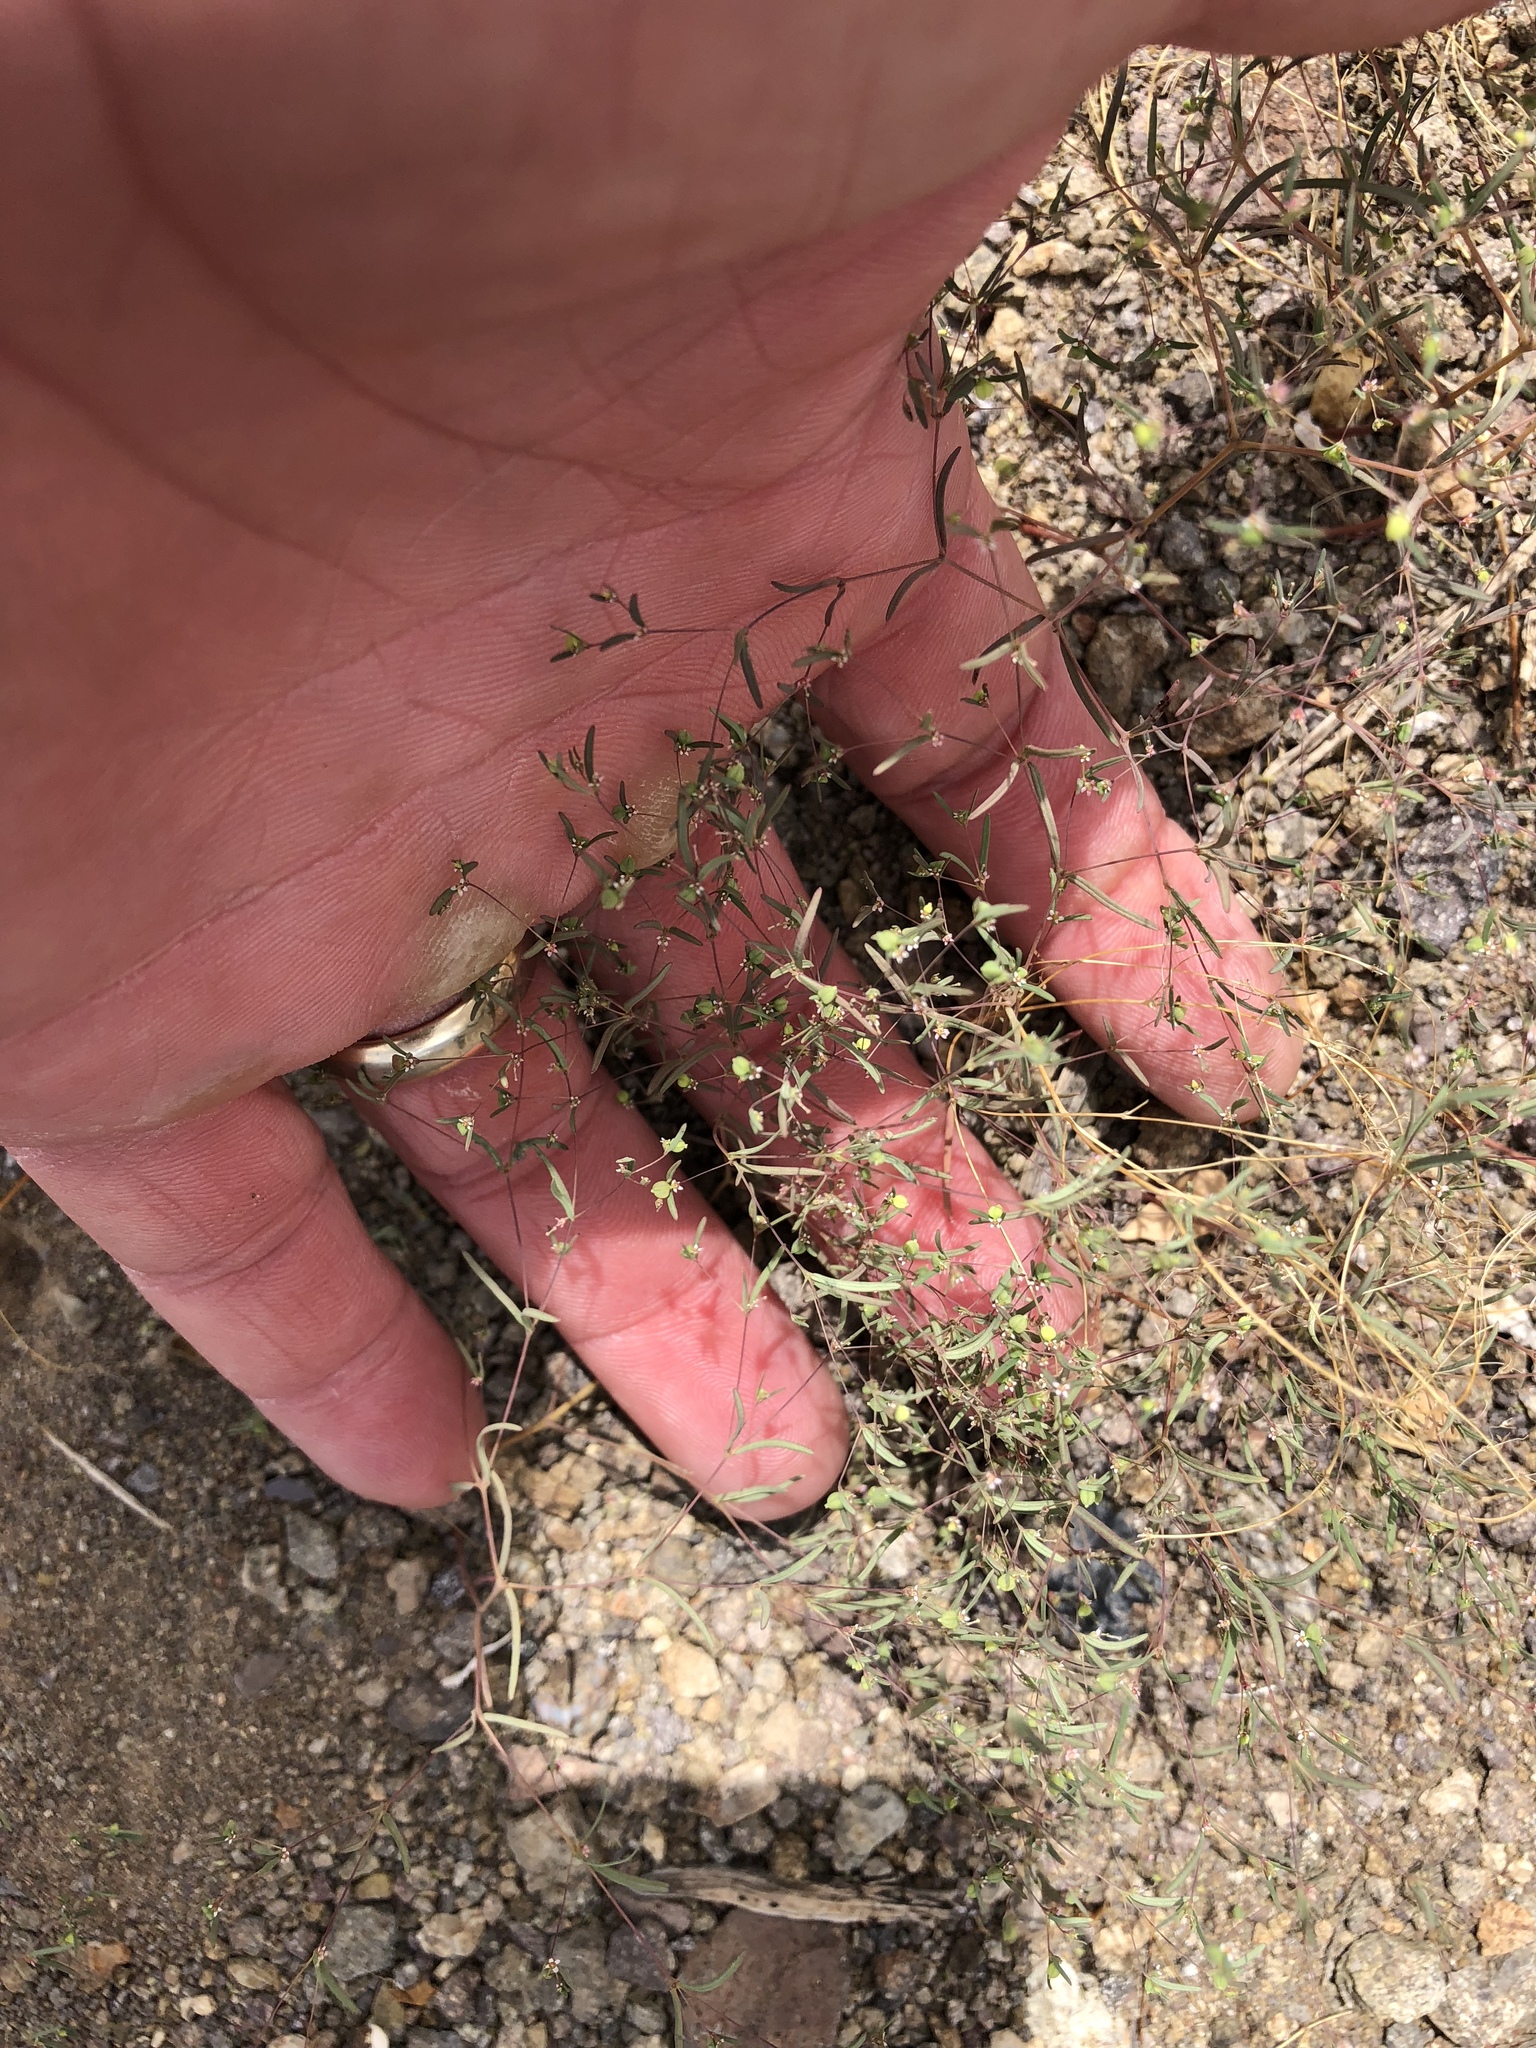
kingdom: Plantae
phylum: Tracheophyta
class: Magnoliopsida
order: Malpighiales
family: Euphorbiaceae
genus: Euphorbia
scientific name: Euphorbia gracillima
